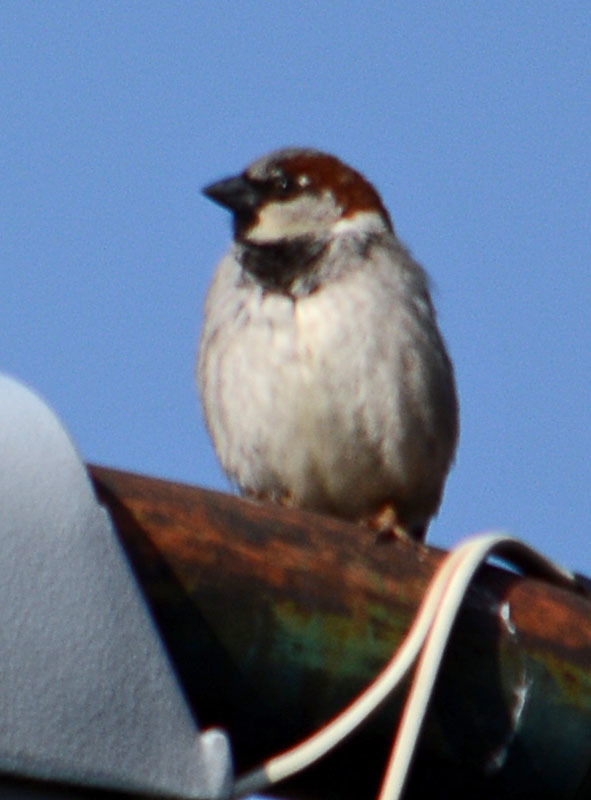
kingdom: Animalia
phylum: Chordata
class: Aves
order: Passeriformes
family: Passeridae
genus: Passer
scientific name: Passer domesticus
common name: House sparrow
